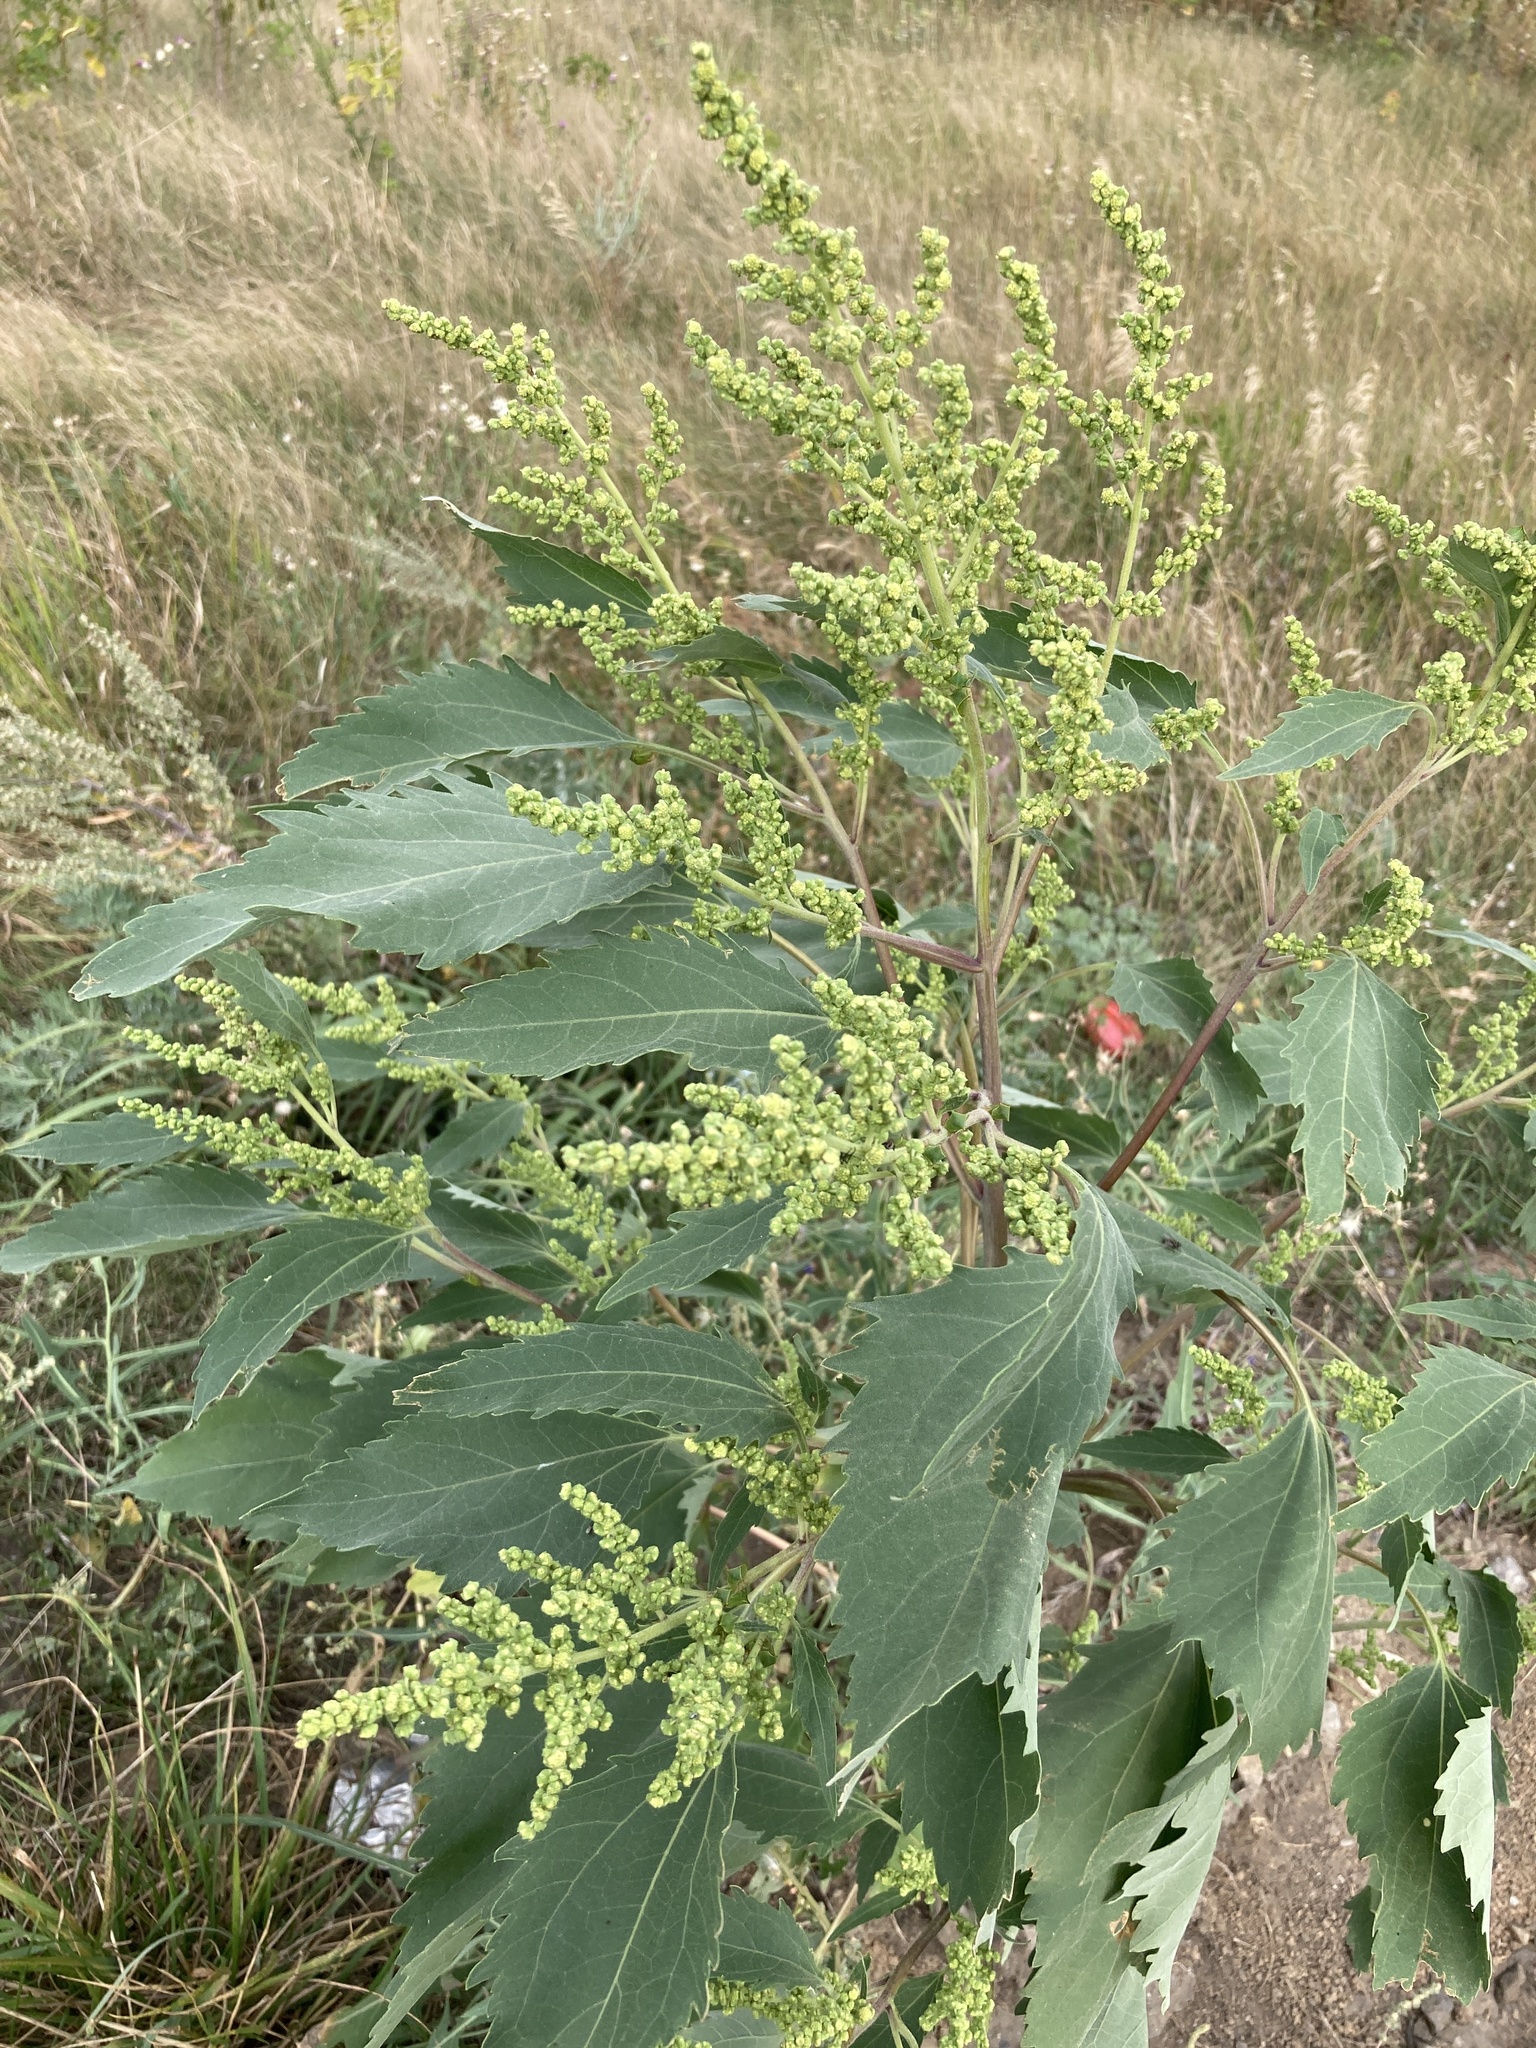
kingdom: Plantae
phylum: Tracheophyta
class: Magnoliopsida
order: Asterales
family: Asteraceae
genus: Cyclachaena
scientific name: Cyclachaena xanthiifolia
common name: Giant sumpweed
